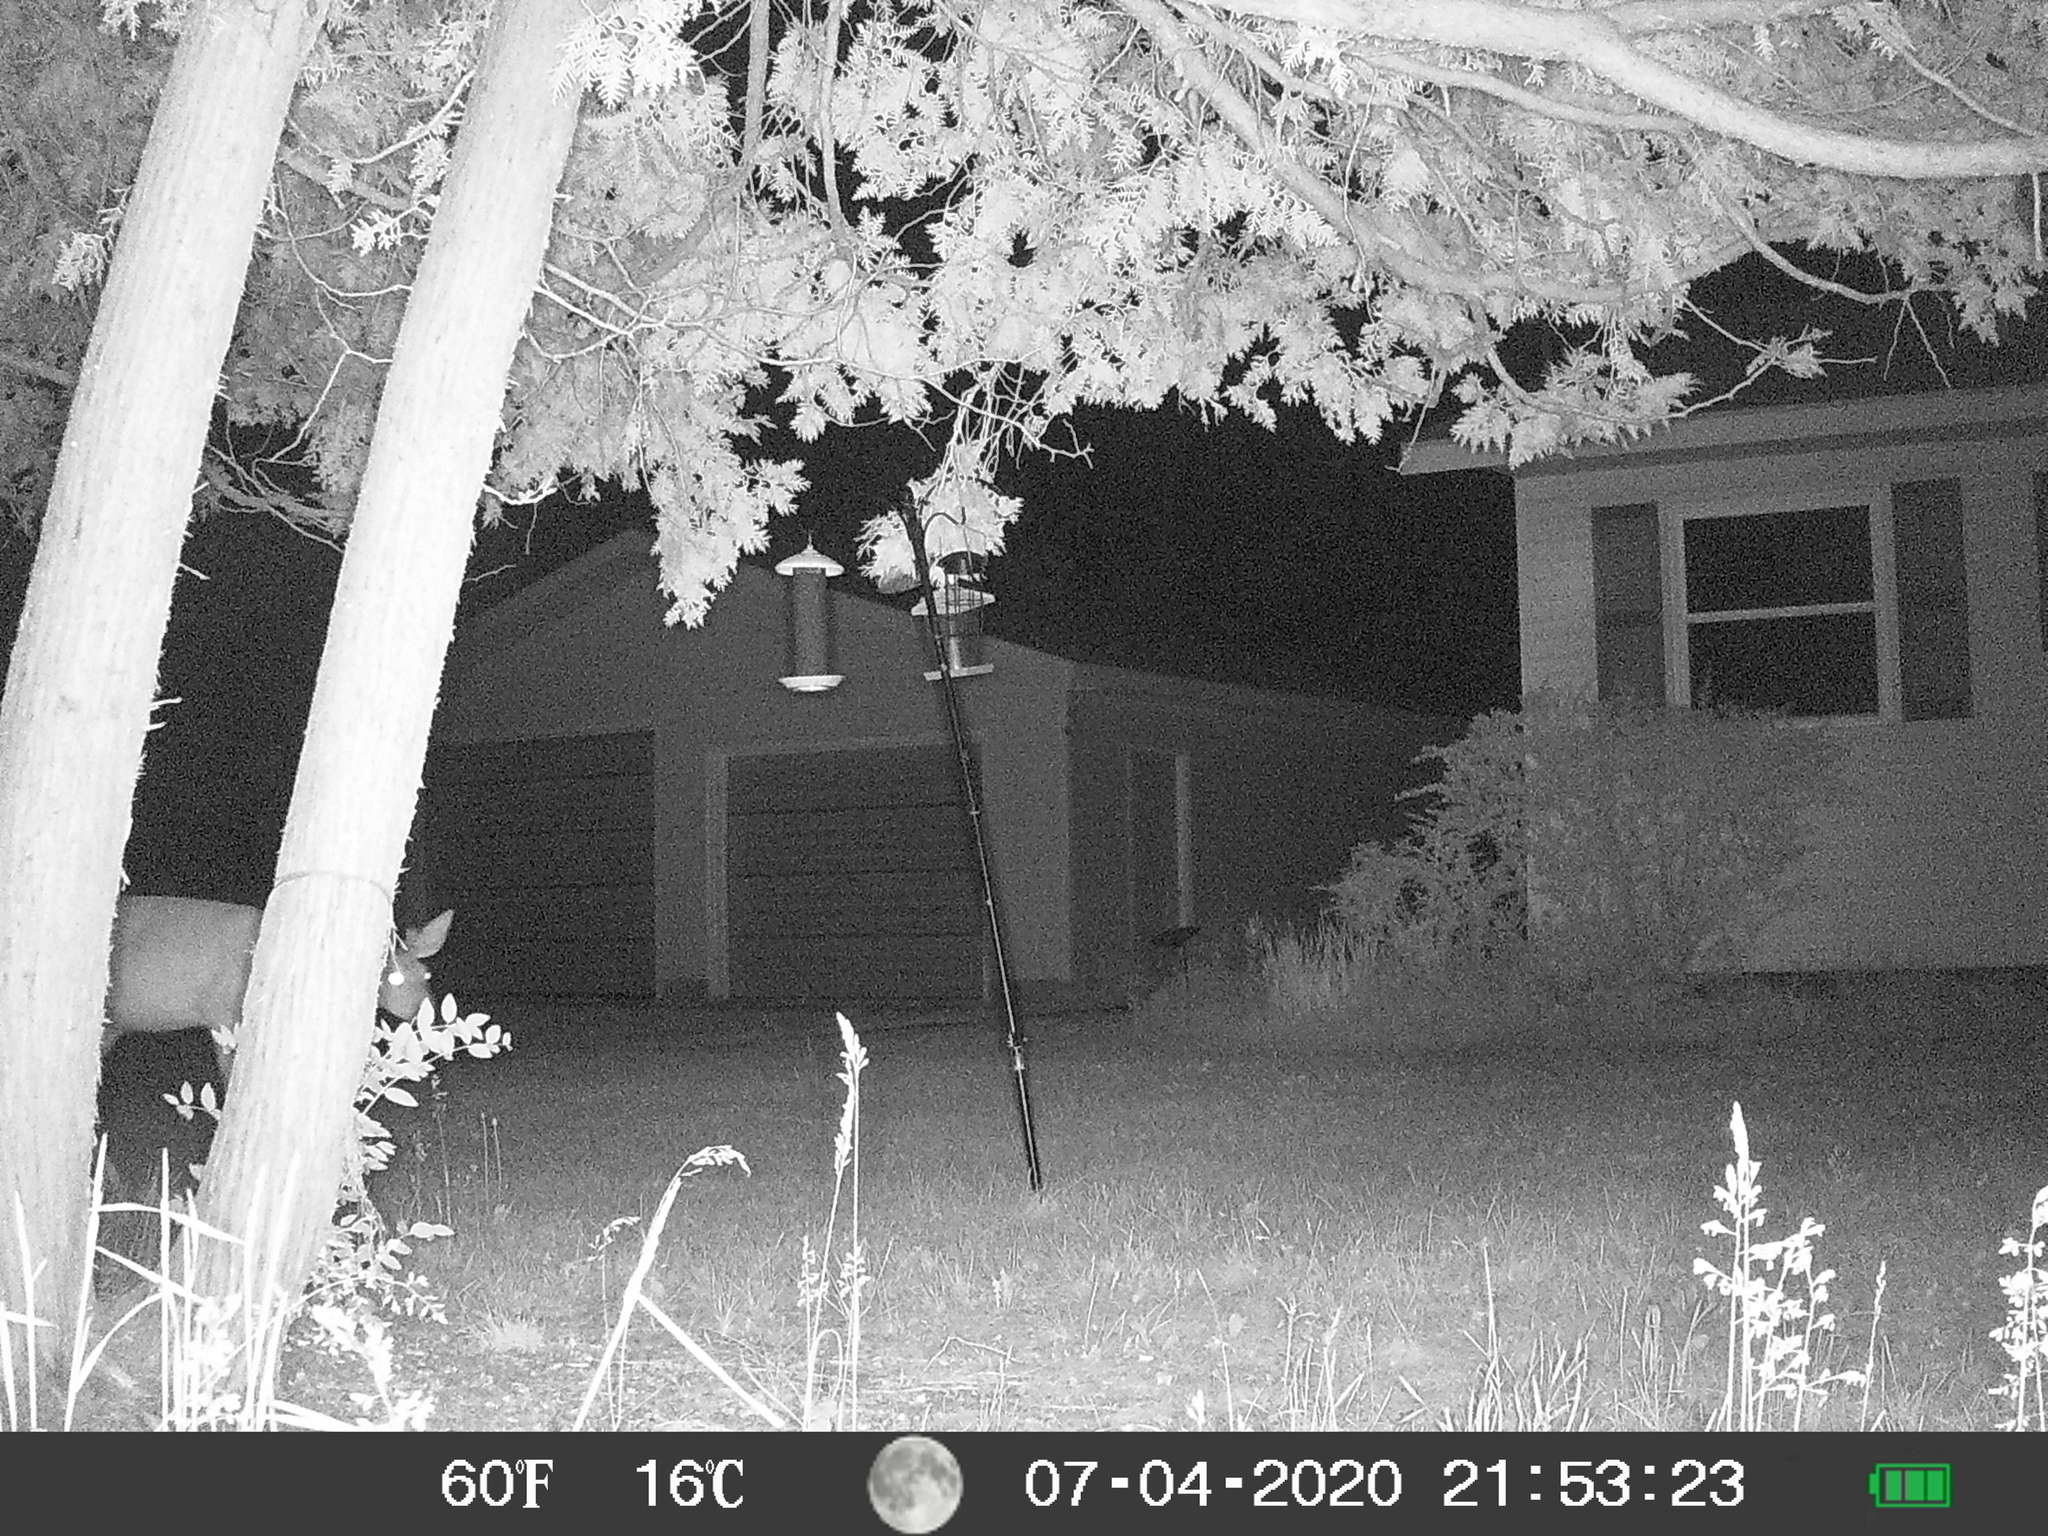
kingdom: Animalia
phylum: Chordata
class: Mammalia
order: Artiodactyla
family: Cervidae
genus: Odocoileus
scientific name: Odocoileus virginianus
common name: White-tailed deer
